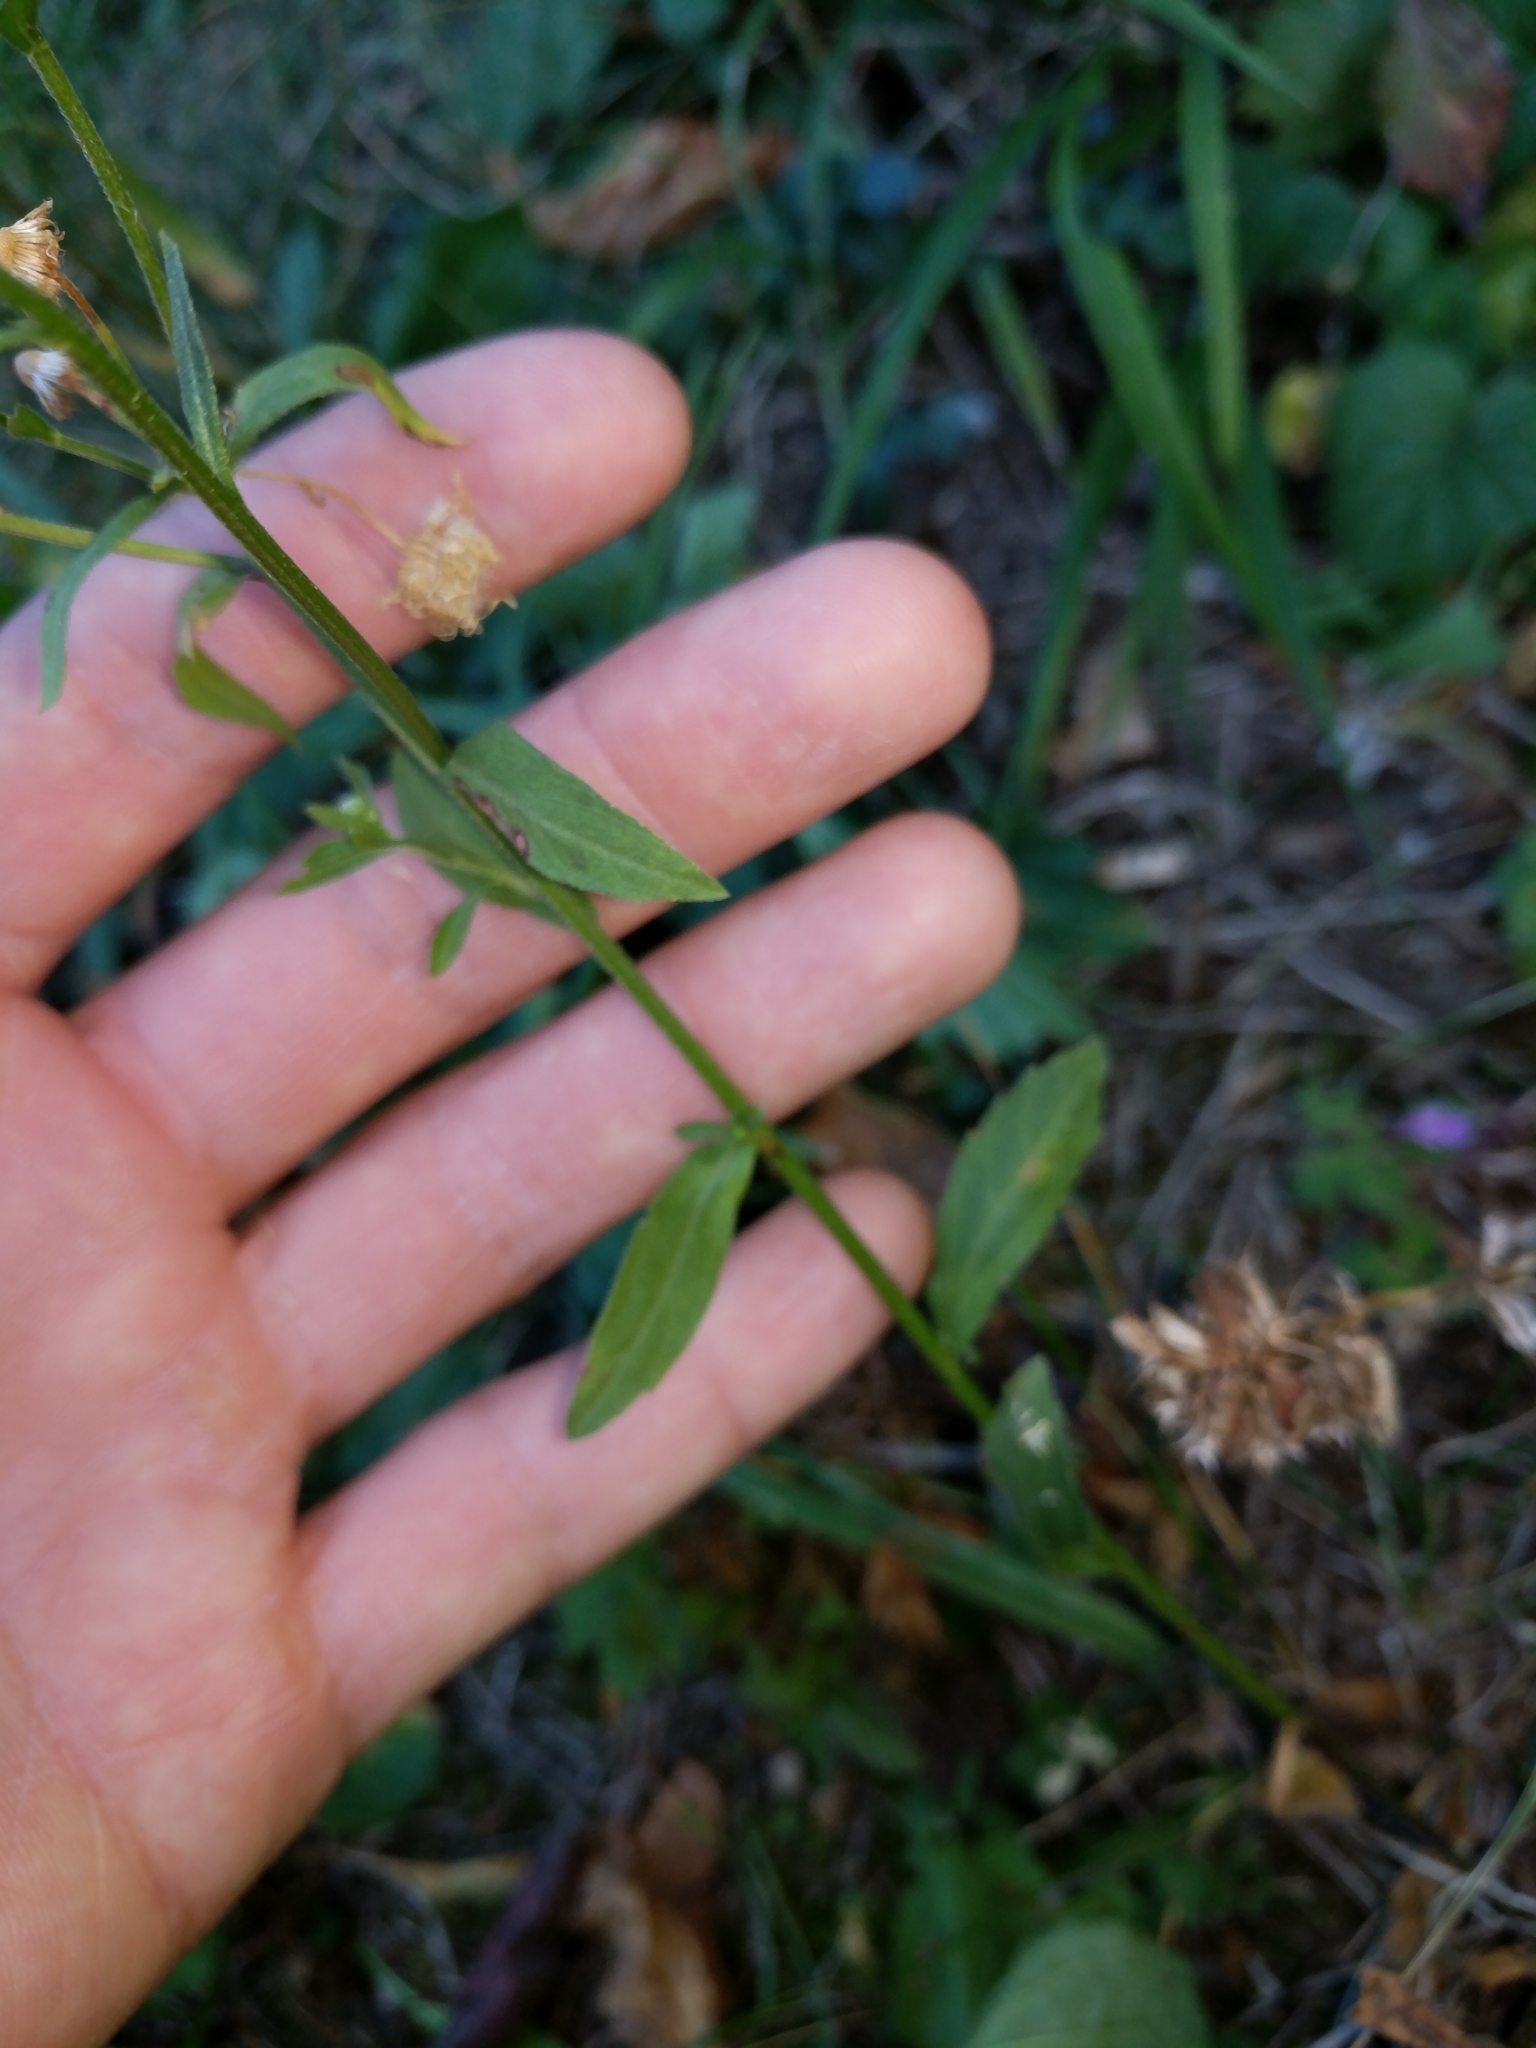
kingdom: Plantae
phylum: Tracheophyta
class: Magnoliopsida
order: Asterales
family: Asteraceae
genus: Erigeron
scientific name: Erigeron annuus
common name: Tall fleabane
